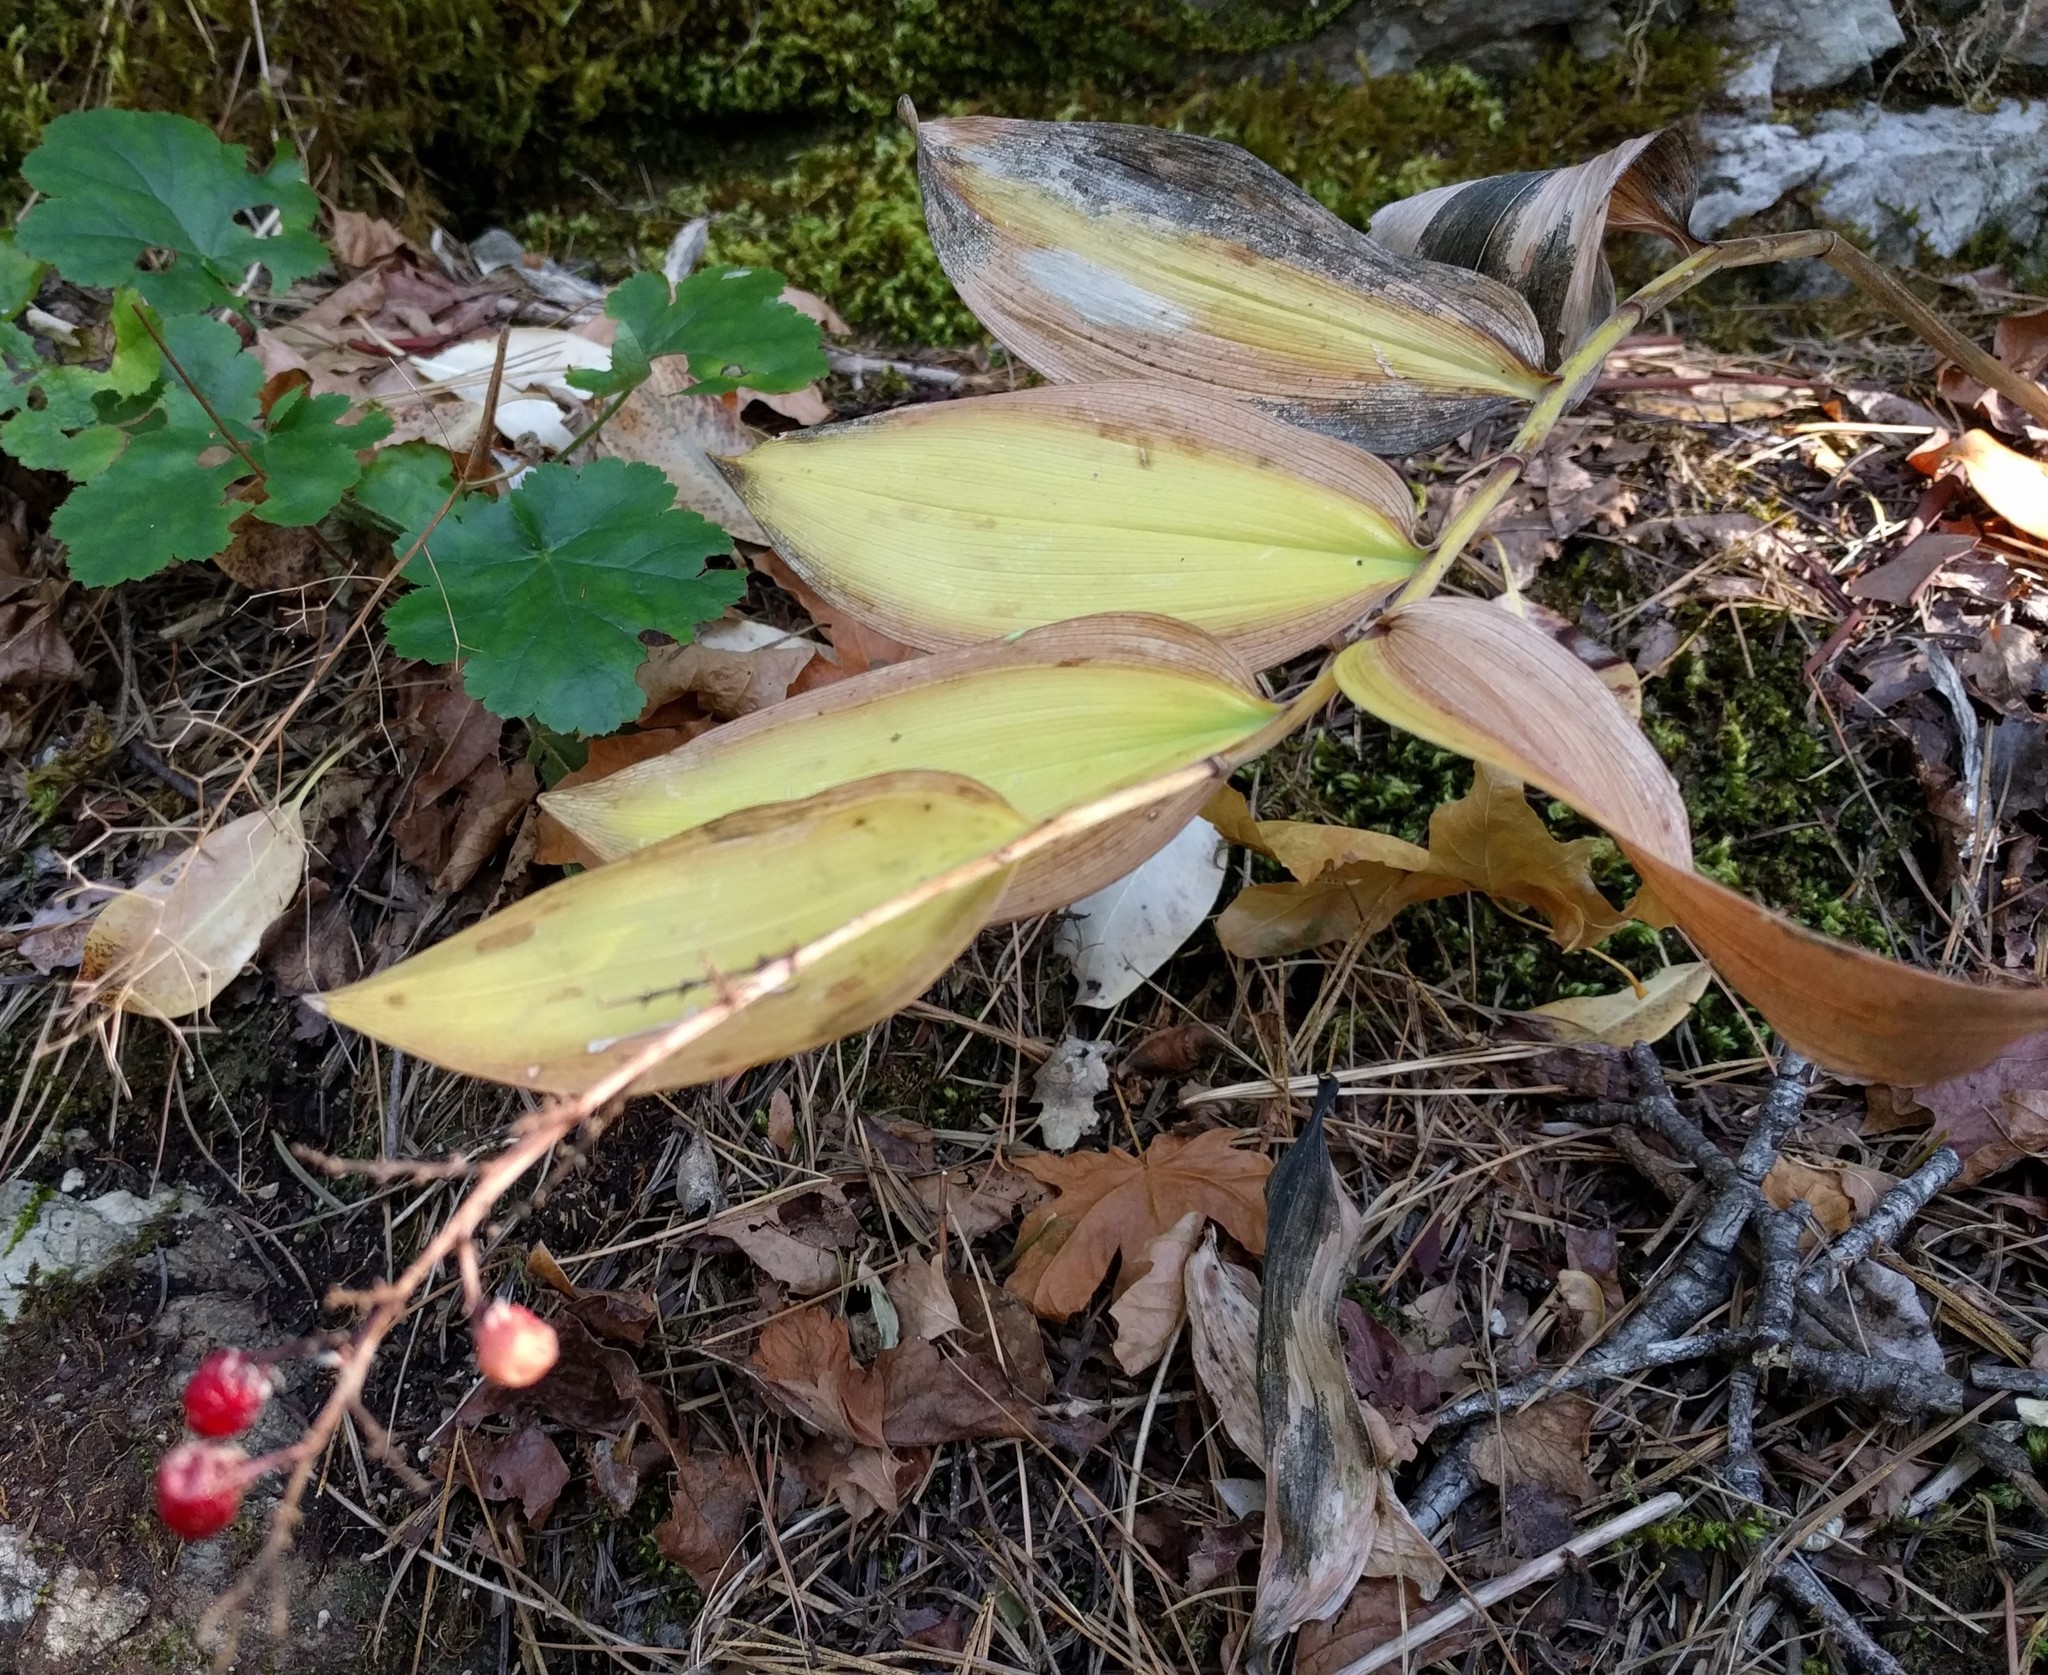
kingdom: Plantae
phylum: Tracheophyta
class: Liliopsida
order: Asparagales
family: Asparagaceae
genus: Maianthemum
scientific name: Maianthemum racemosum
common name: False spikenard
